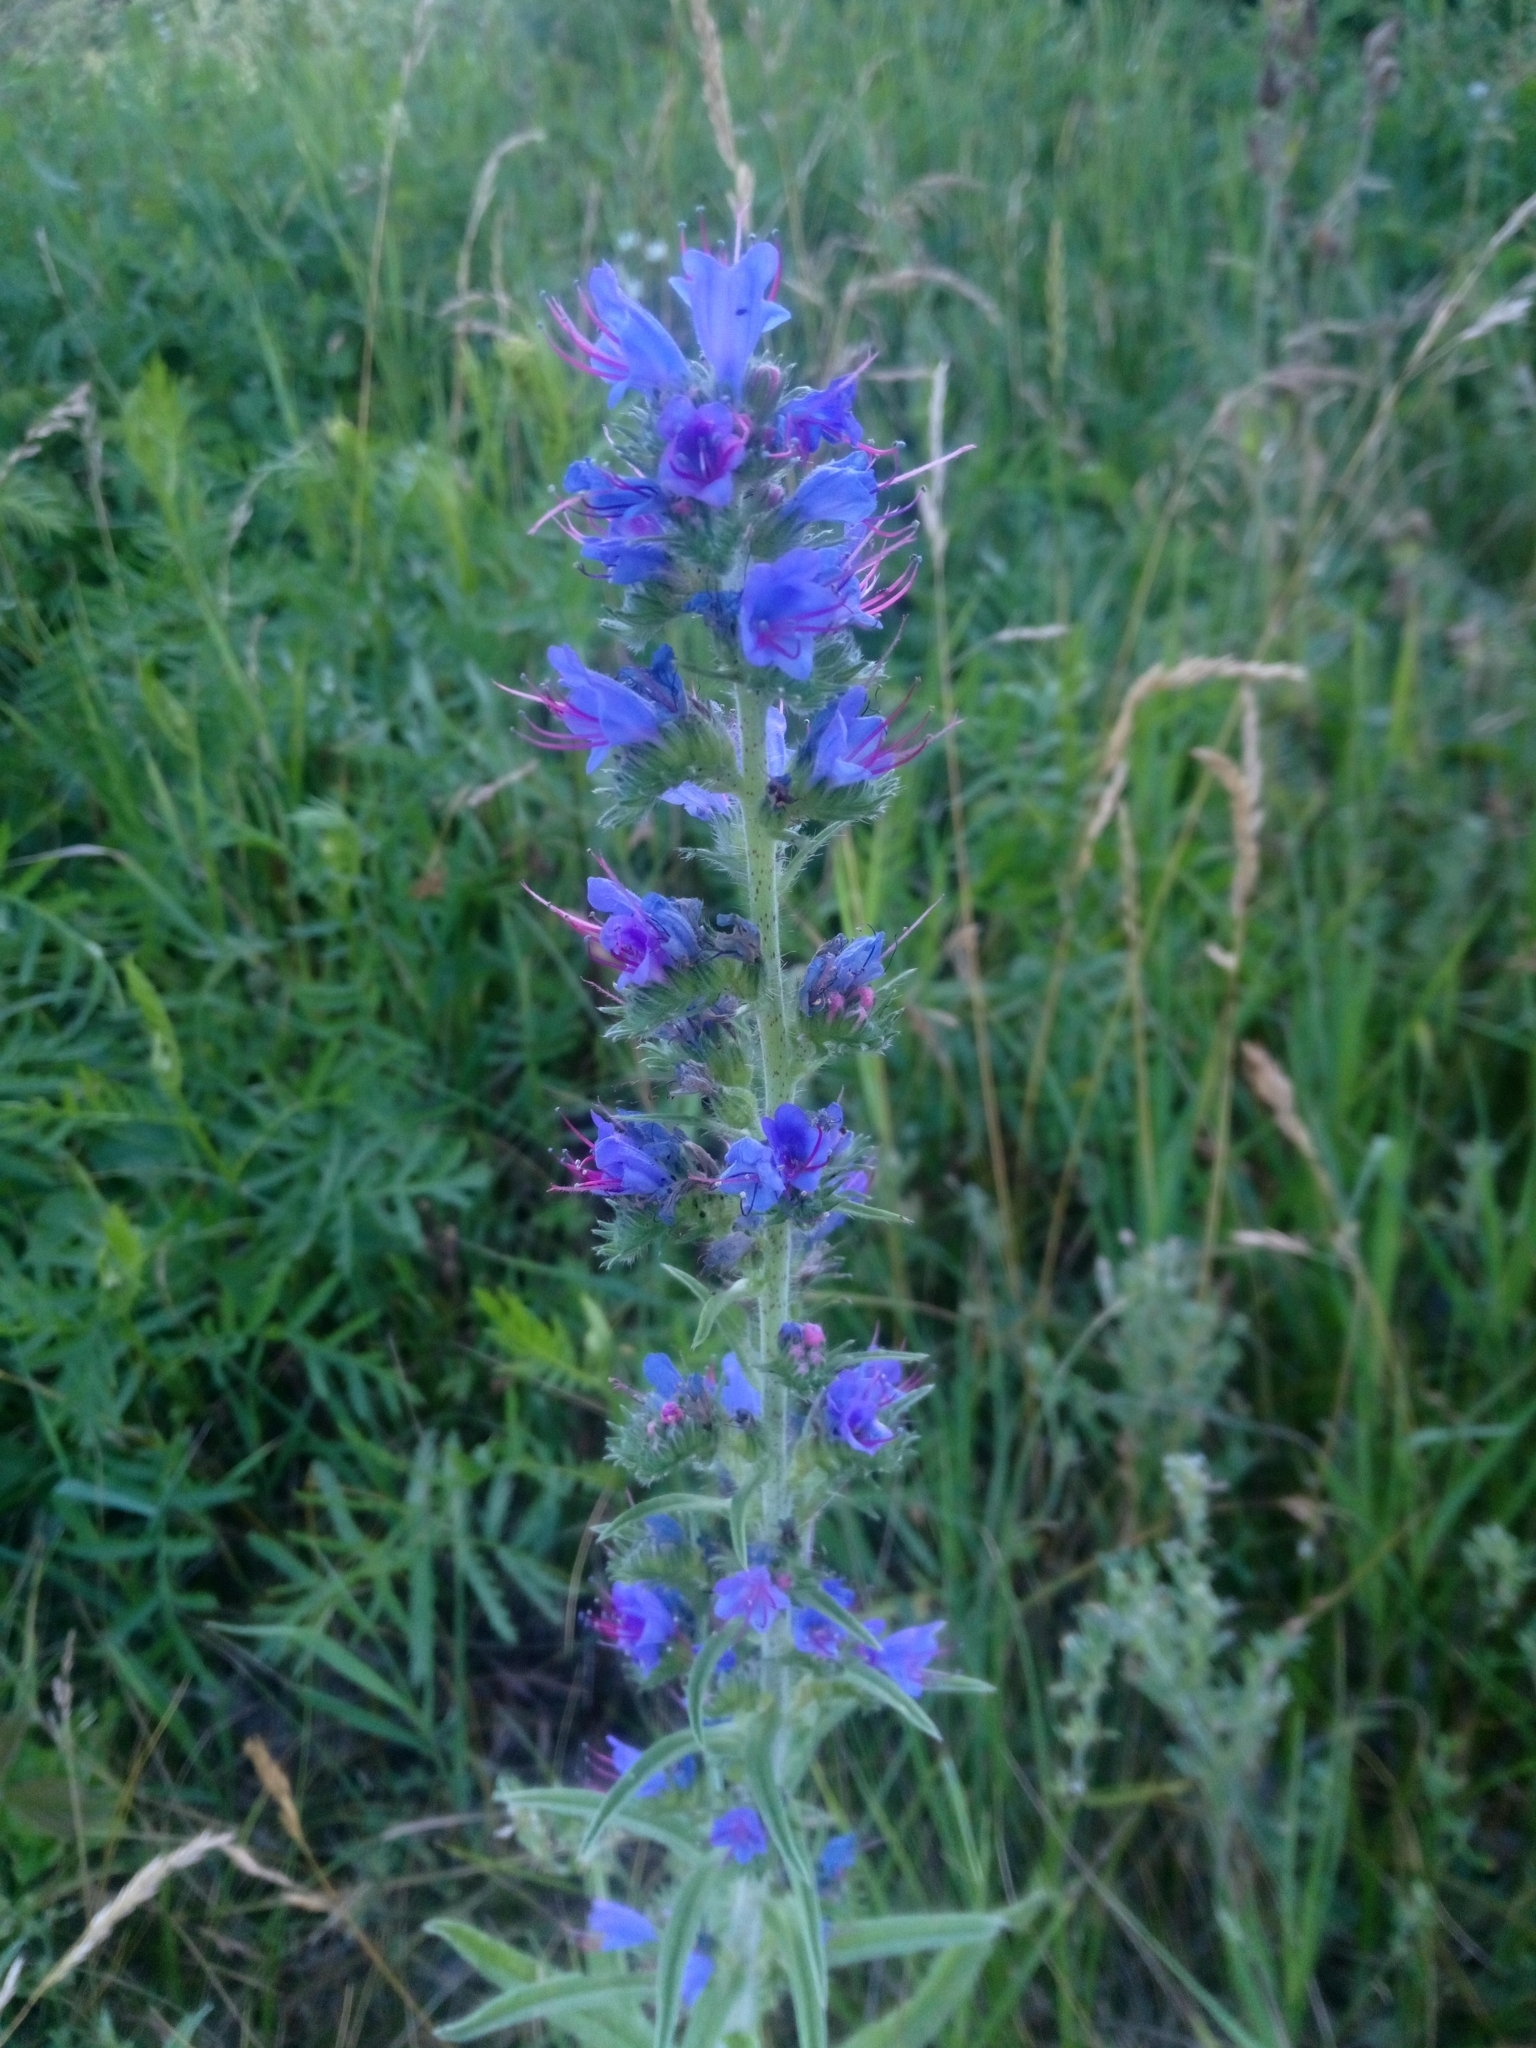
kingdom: Plantae
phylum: Tracheophyta
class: Magnoliopsida
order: Boraginales
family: Boraginaceae
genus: Echium
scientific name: Echium vulgare
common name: Common viper's bugloss
